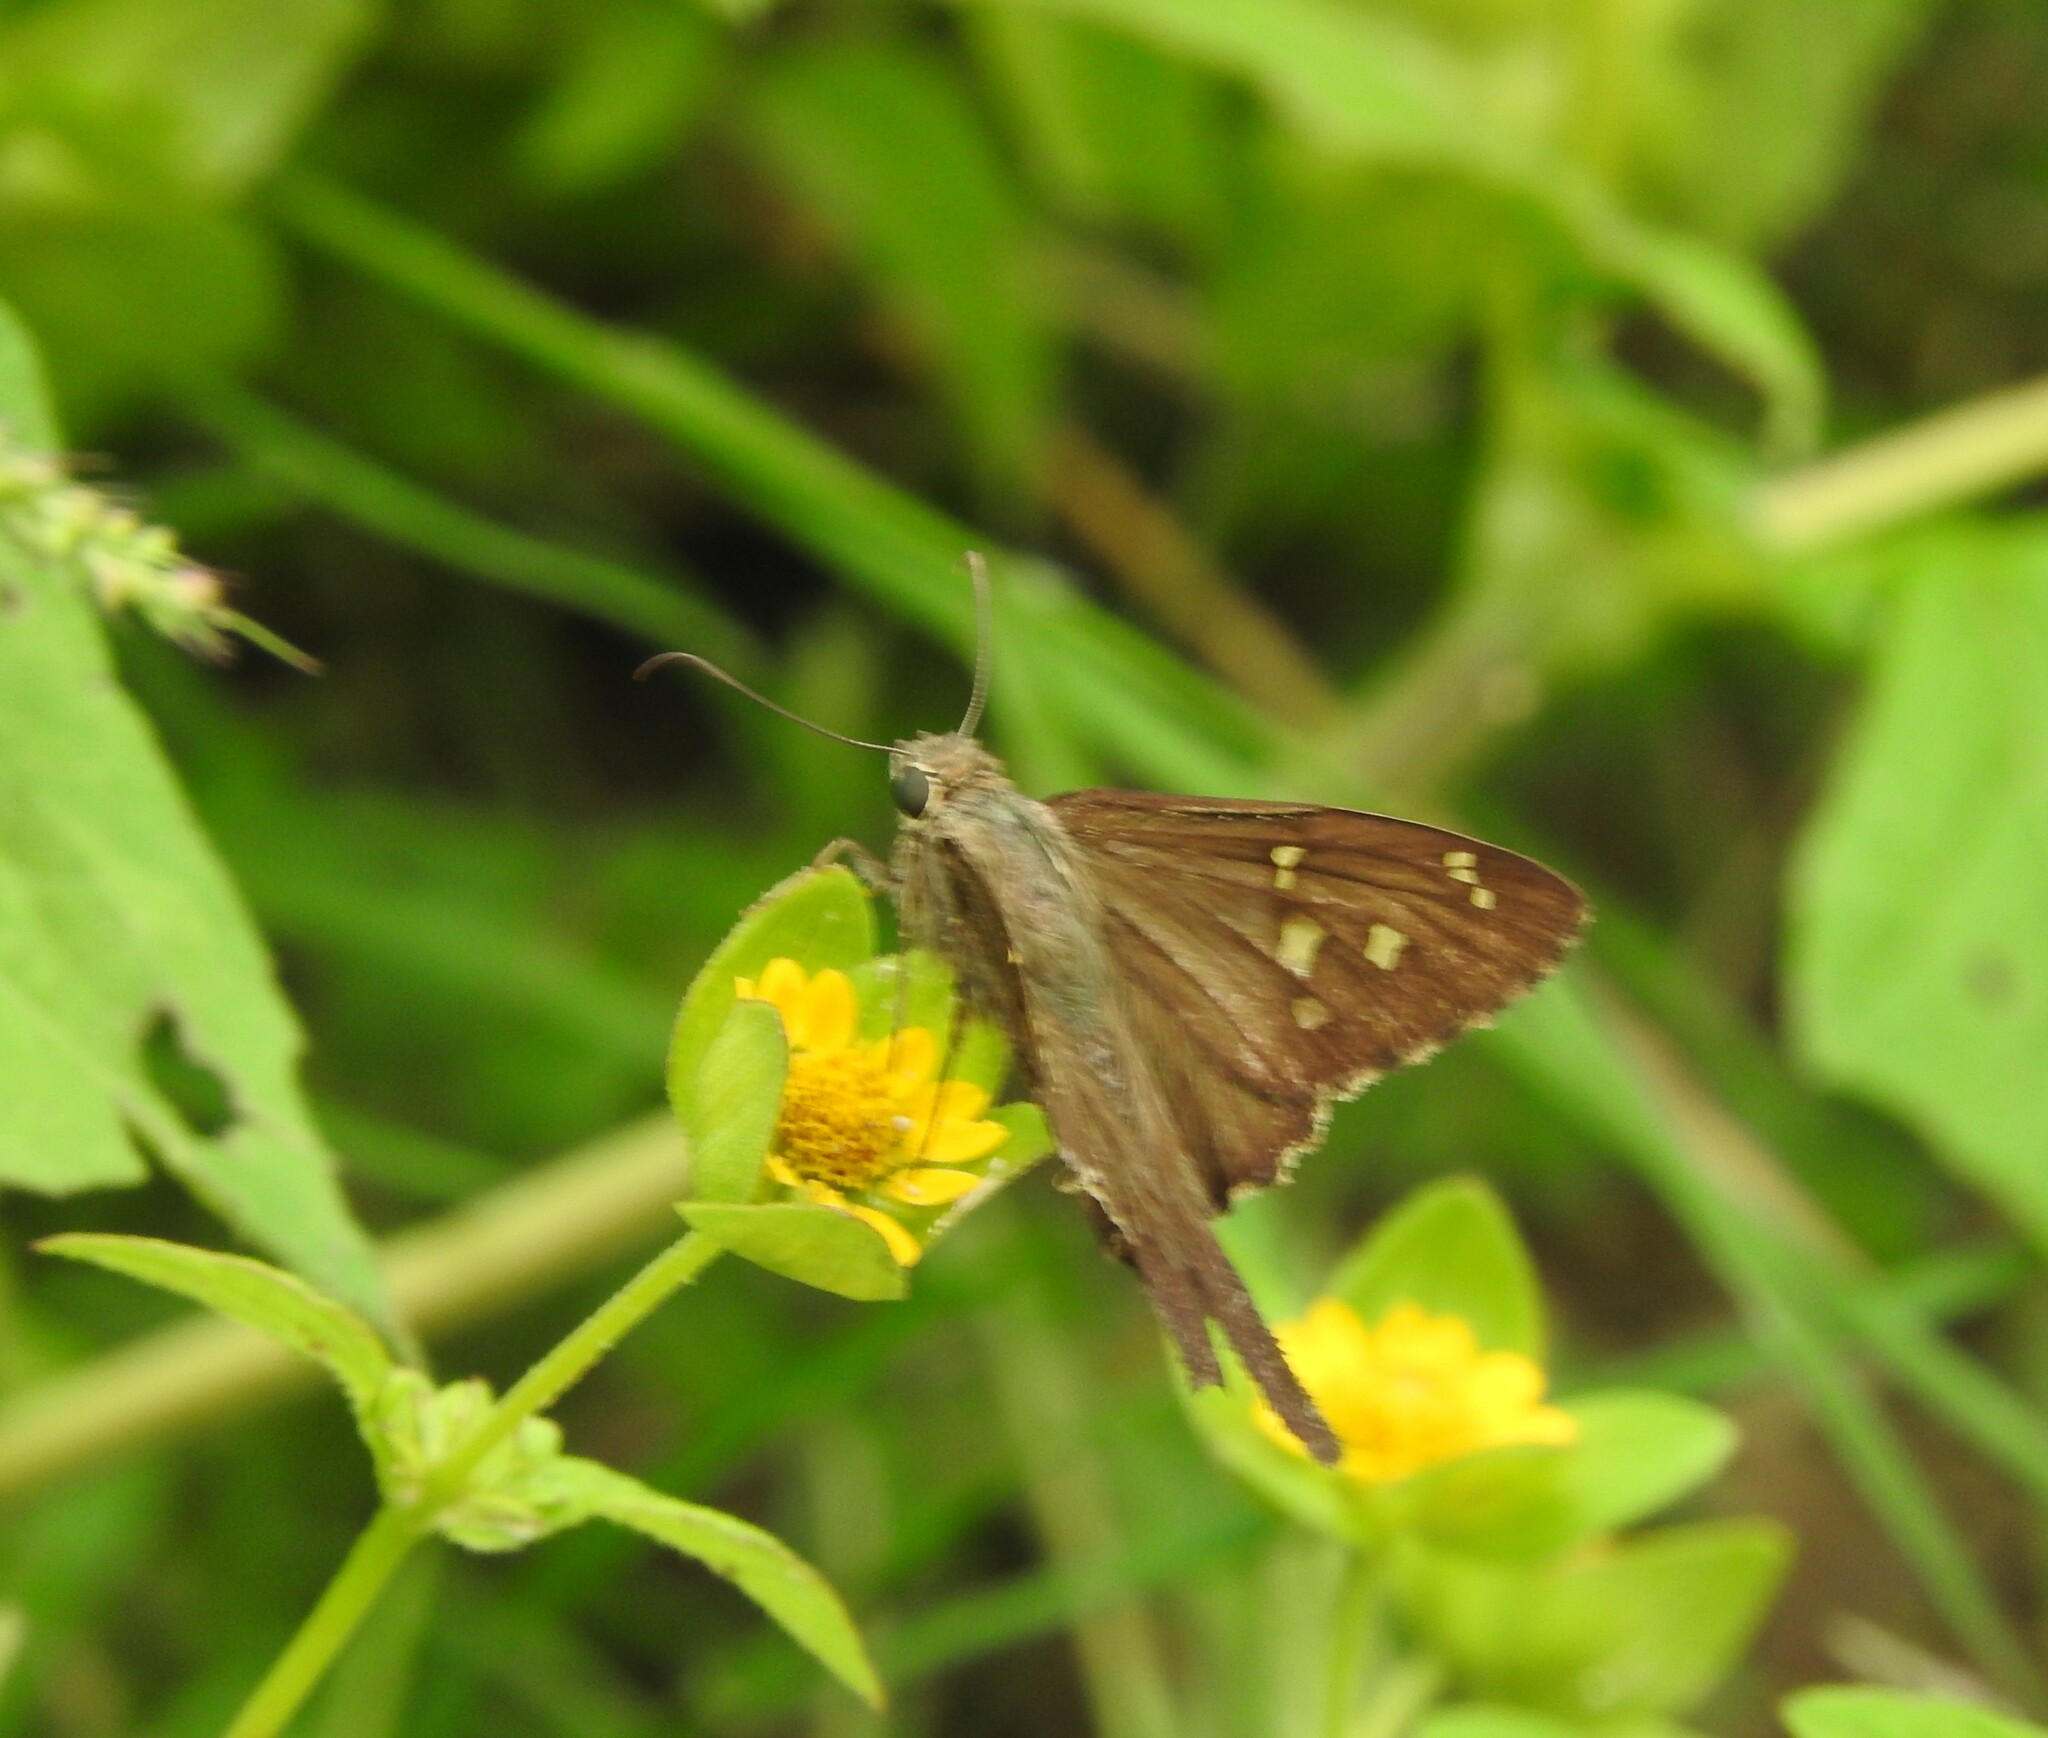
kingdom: Animalia
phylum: Arthropoda
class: Insecta
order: Lepidoptera
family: Hesperiidae
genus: Thorybes
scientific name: Thorybes
